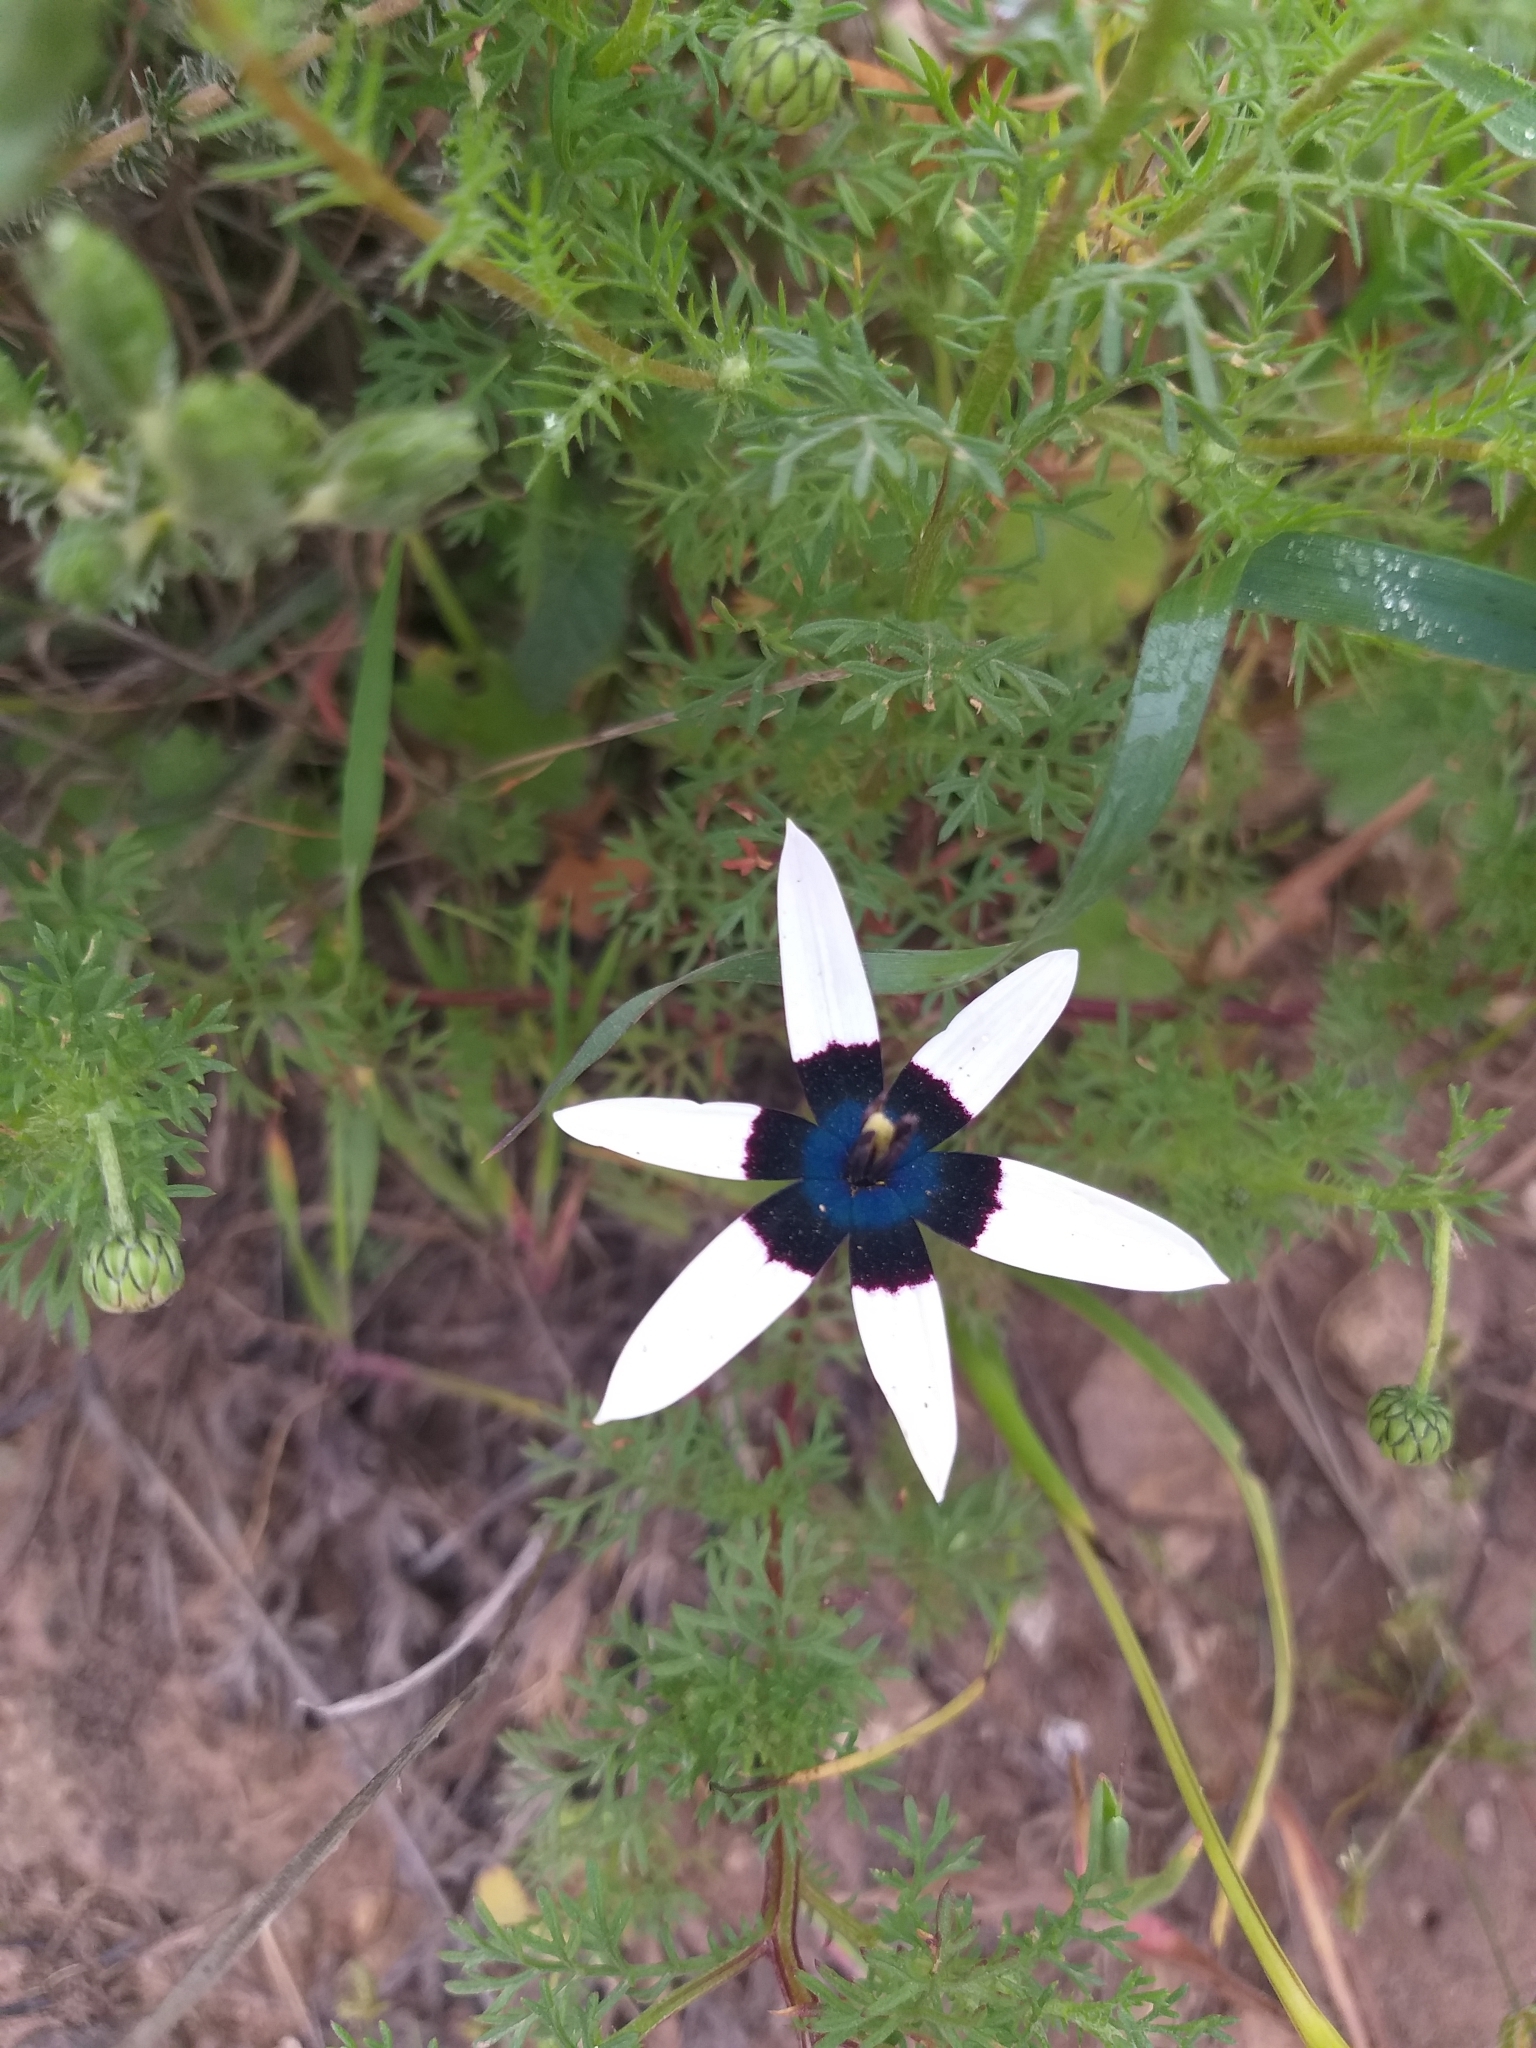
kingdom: Plantae
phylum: Tracheophyta
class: Liliopsida
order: Asparagales
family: Hypoxidaceae
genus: Pauridia
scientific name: Pauridia capensis
